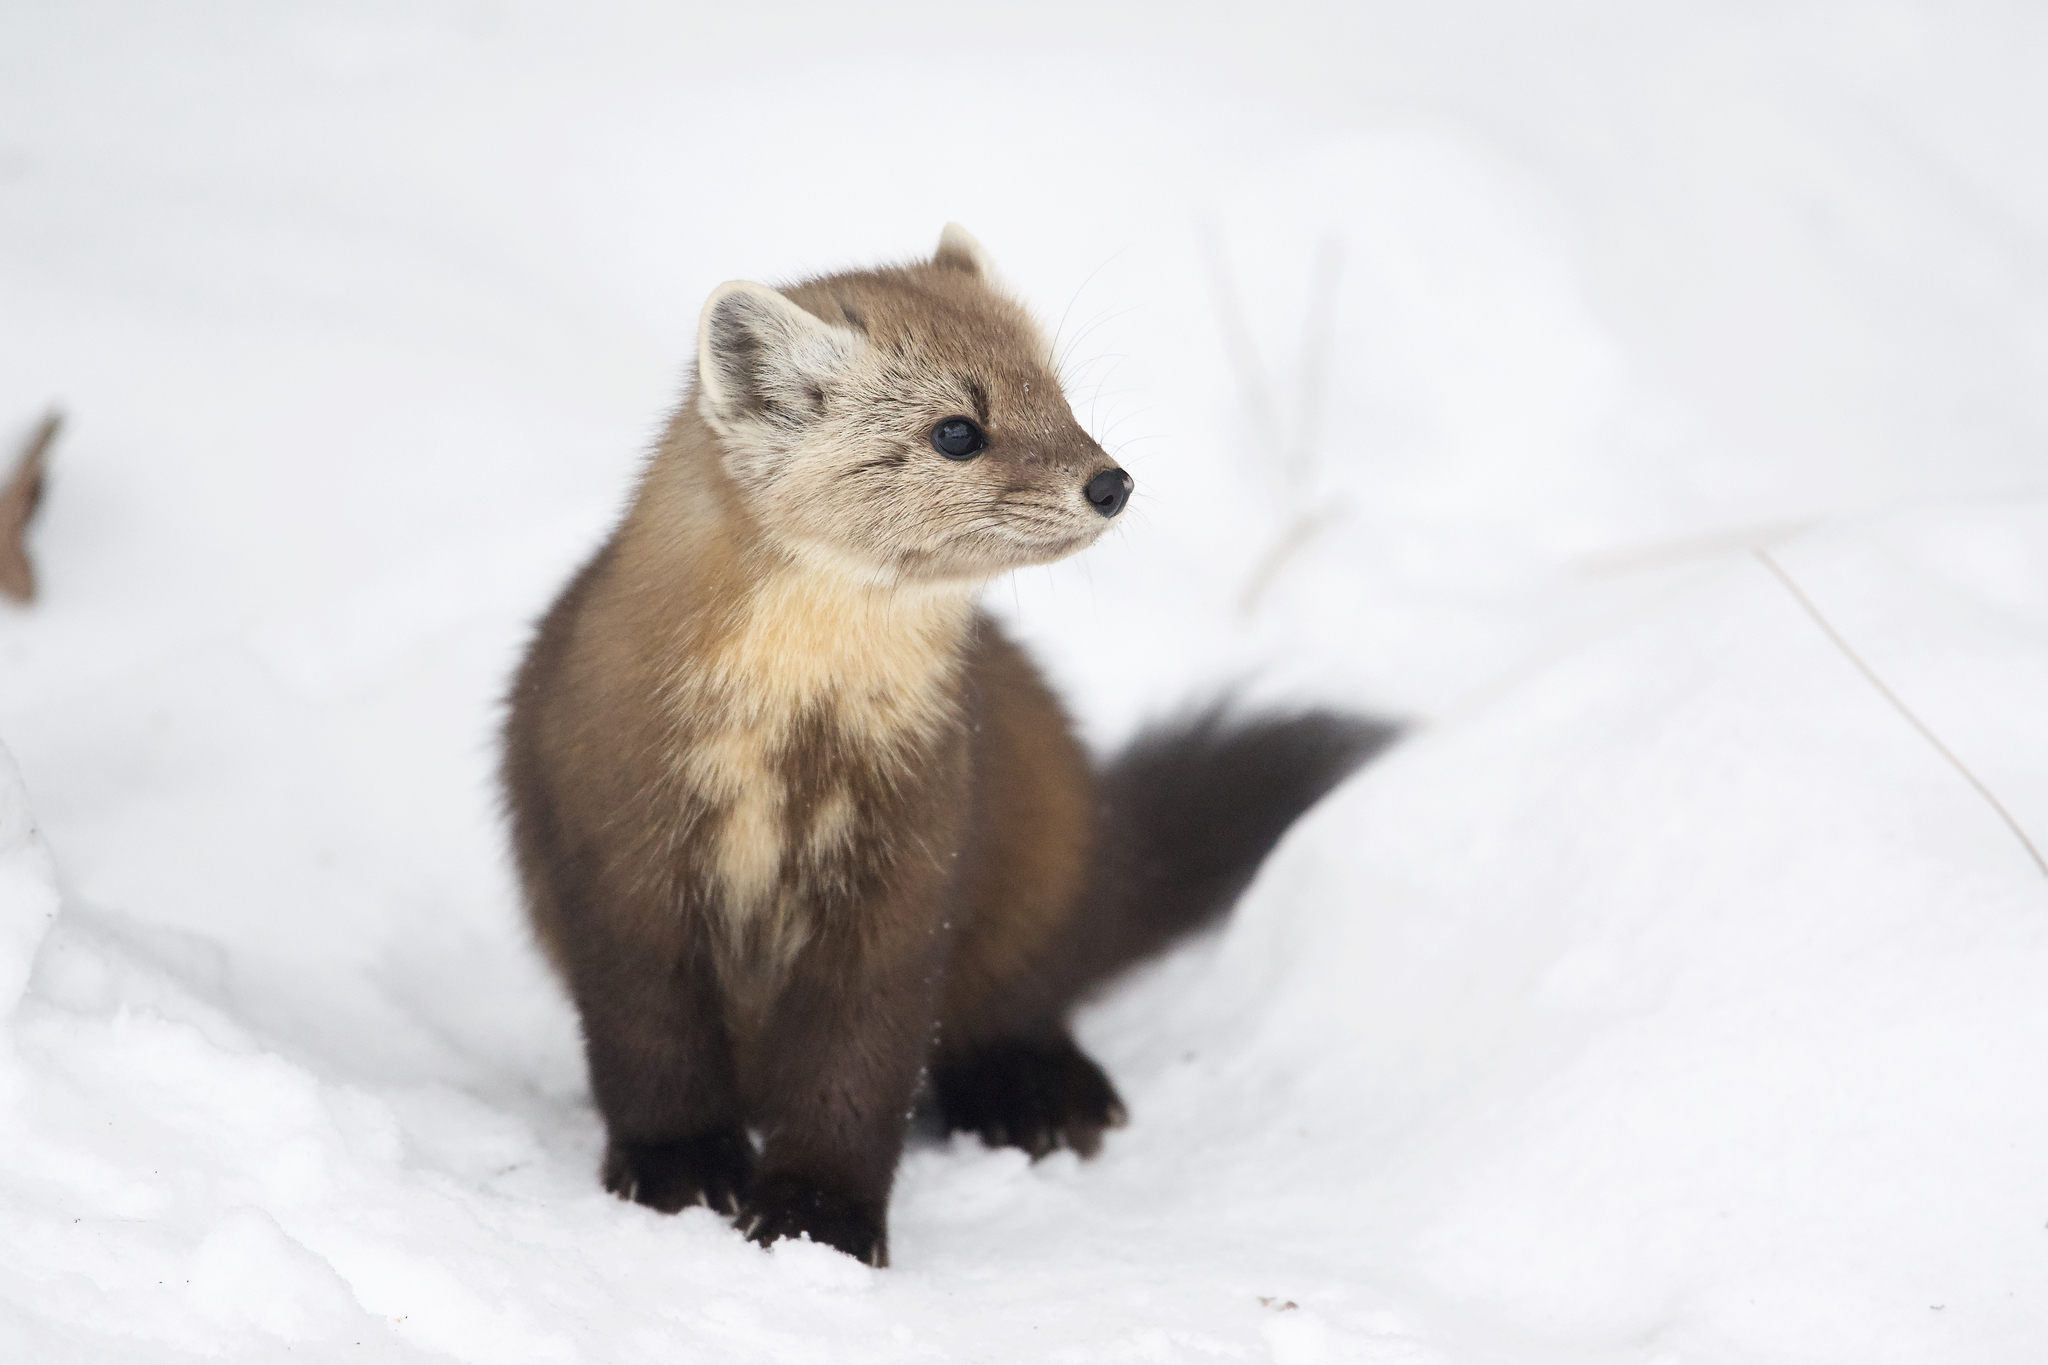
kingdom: Animalia
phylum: Chordata
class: Mammalia
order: Carnivora
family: Mustelidae
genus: Martes
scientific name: Martes americana
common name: American marten
